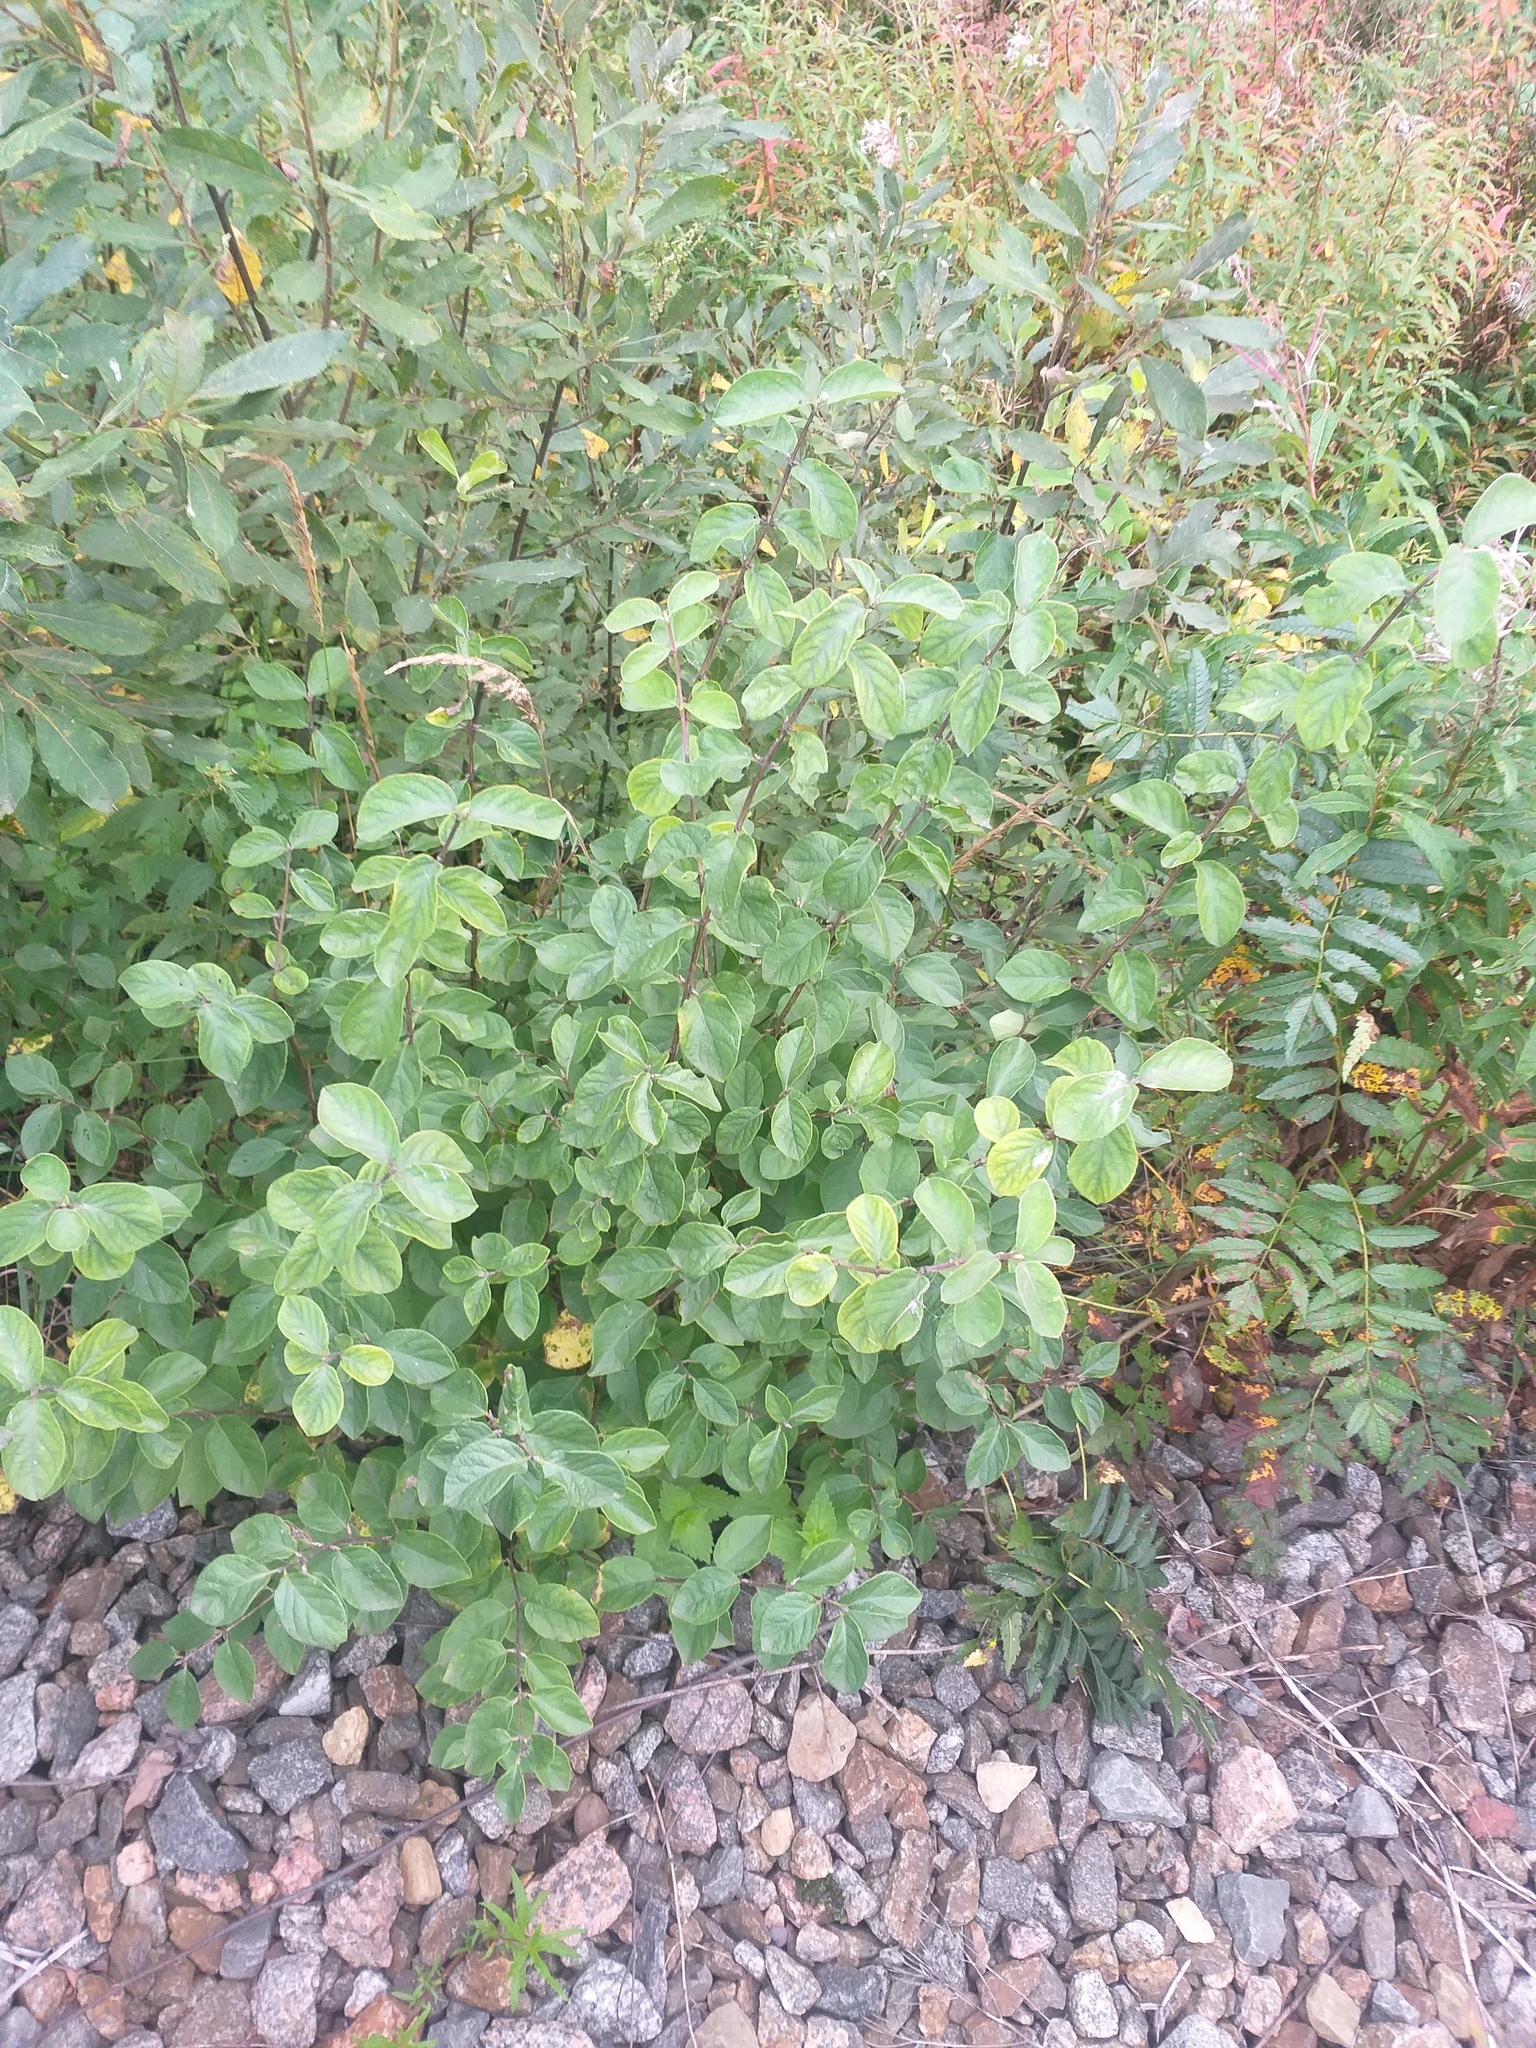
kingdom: Plantae
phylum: Tracheophyta
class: Magnoliopsida
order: Dipsacales
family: Caprifoliaceae
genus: Lonicera
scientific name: Lonicera xylosteum
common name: Fly honeysuckle
